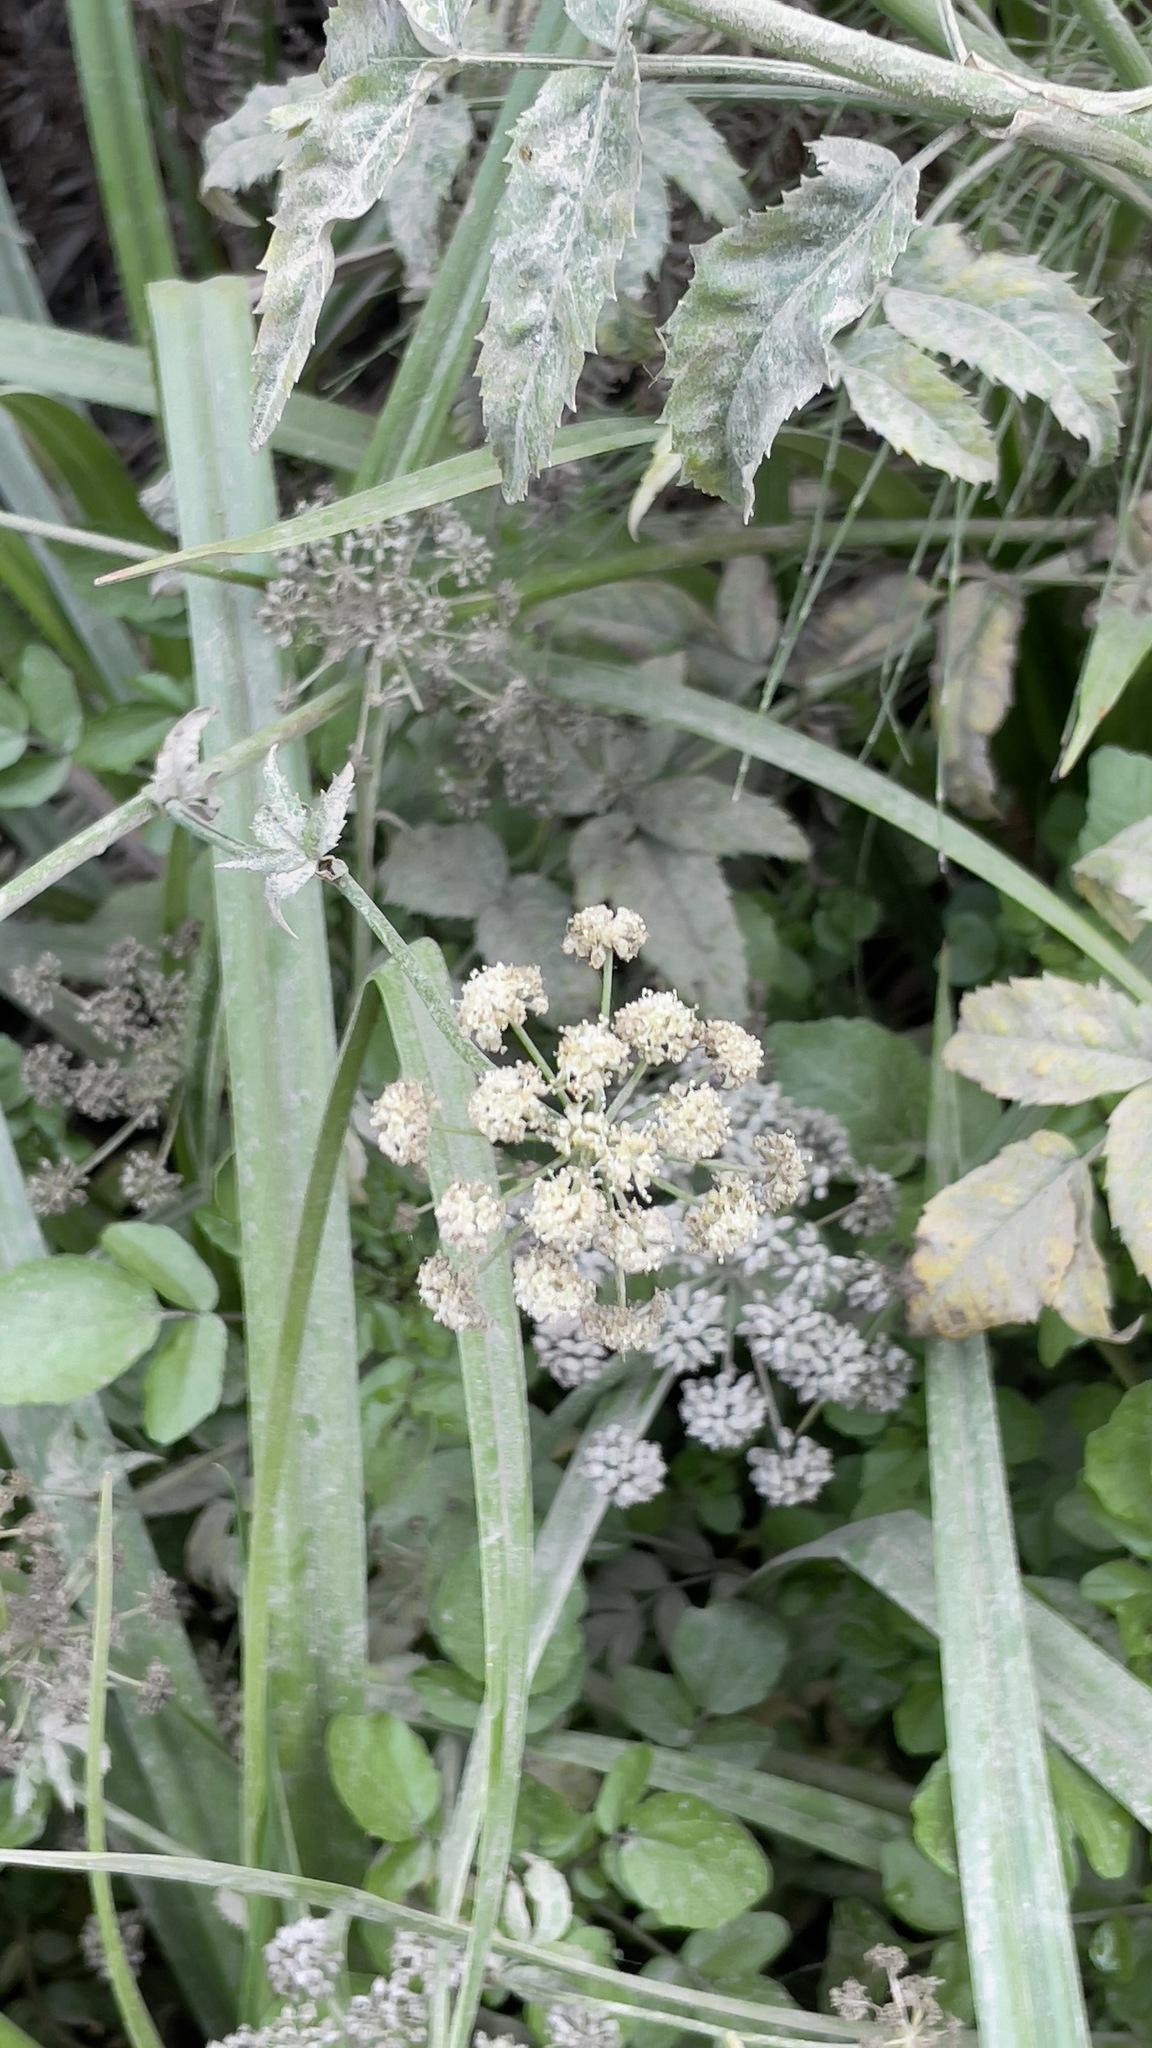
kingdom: Plantae
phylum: Tracheophyta
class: Magnoliopsida
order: Apiales
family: Apiaceae
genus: Cicuta
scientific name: Cicuta douglasii
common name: Western water-hemlock
